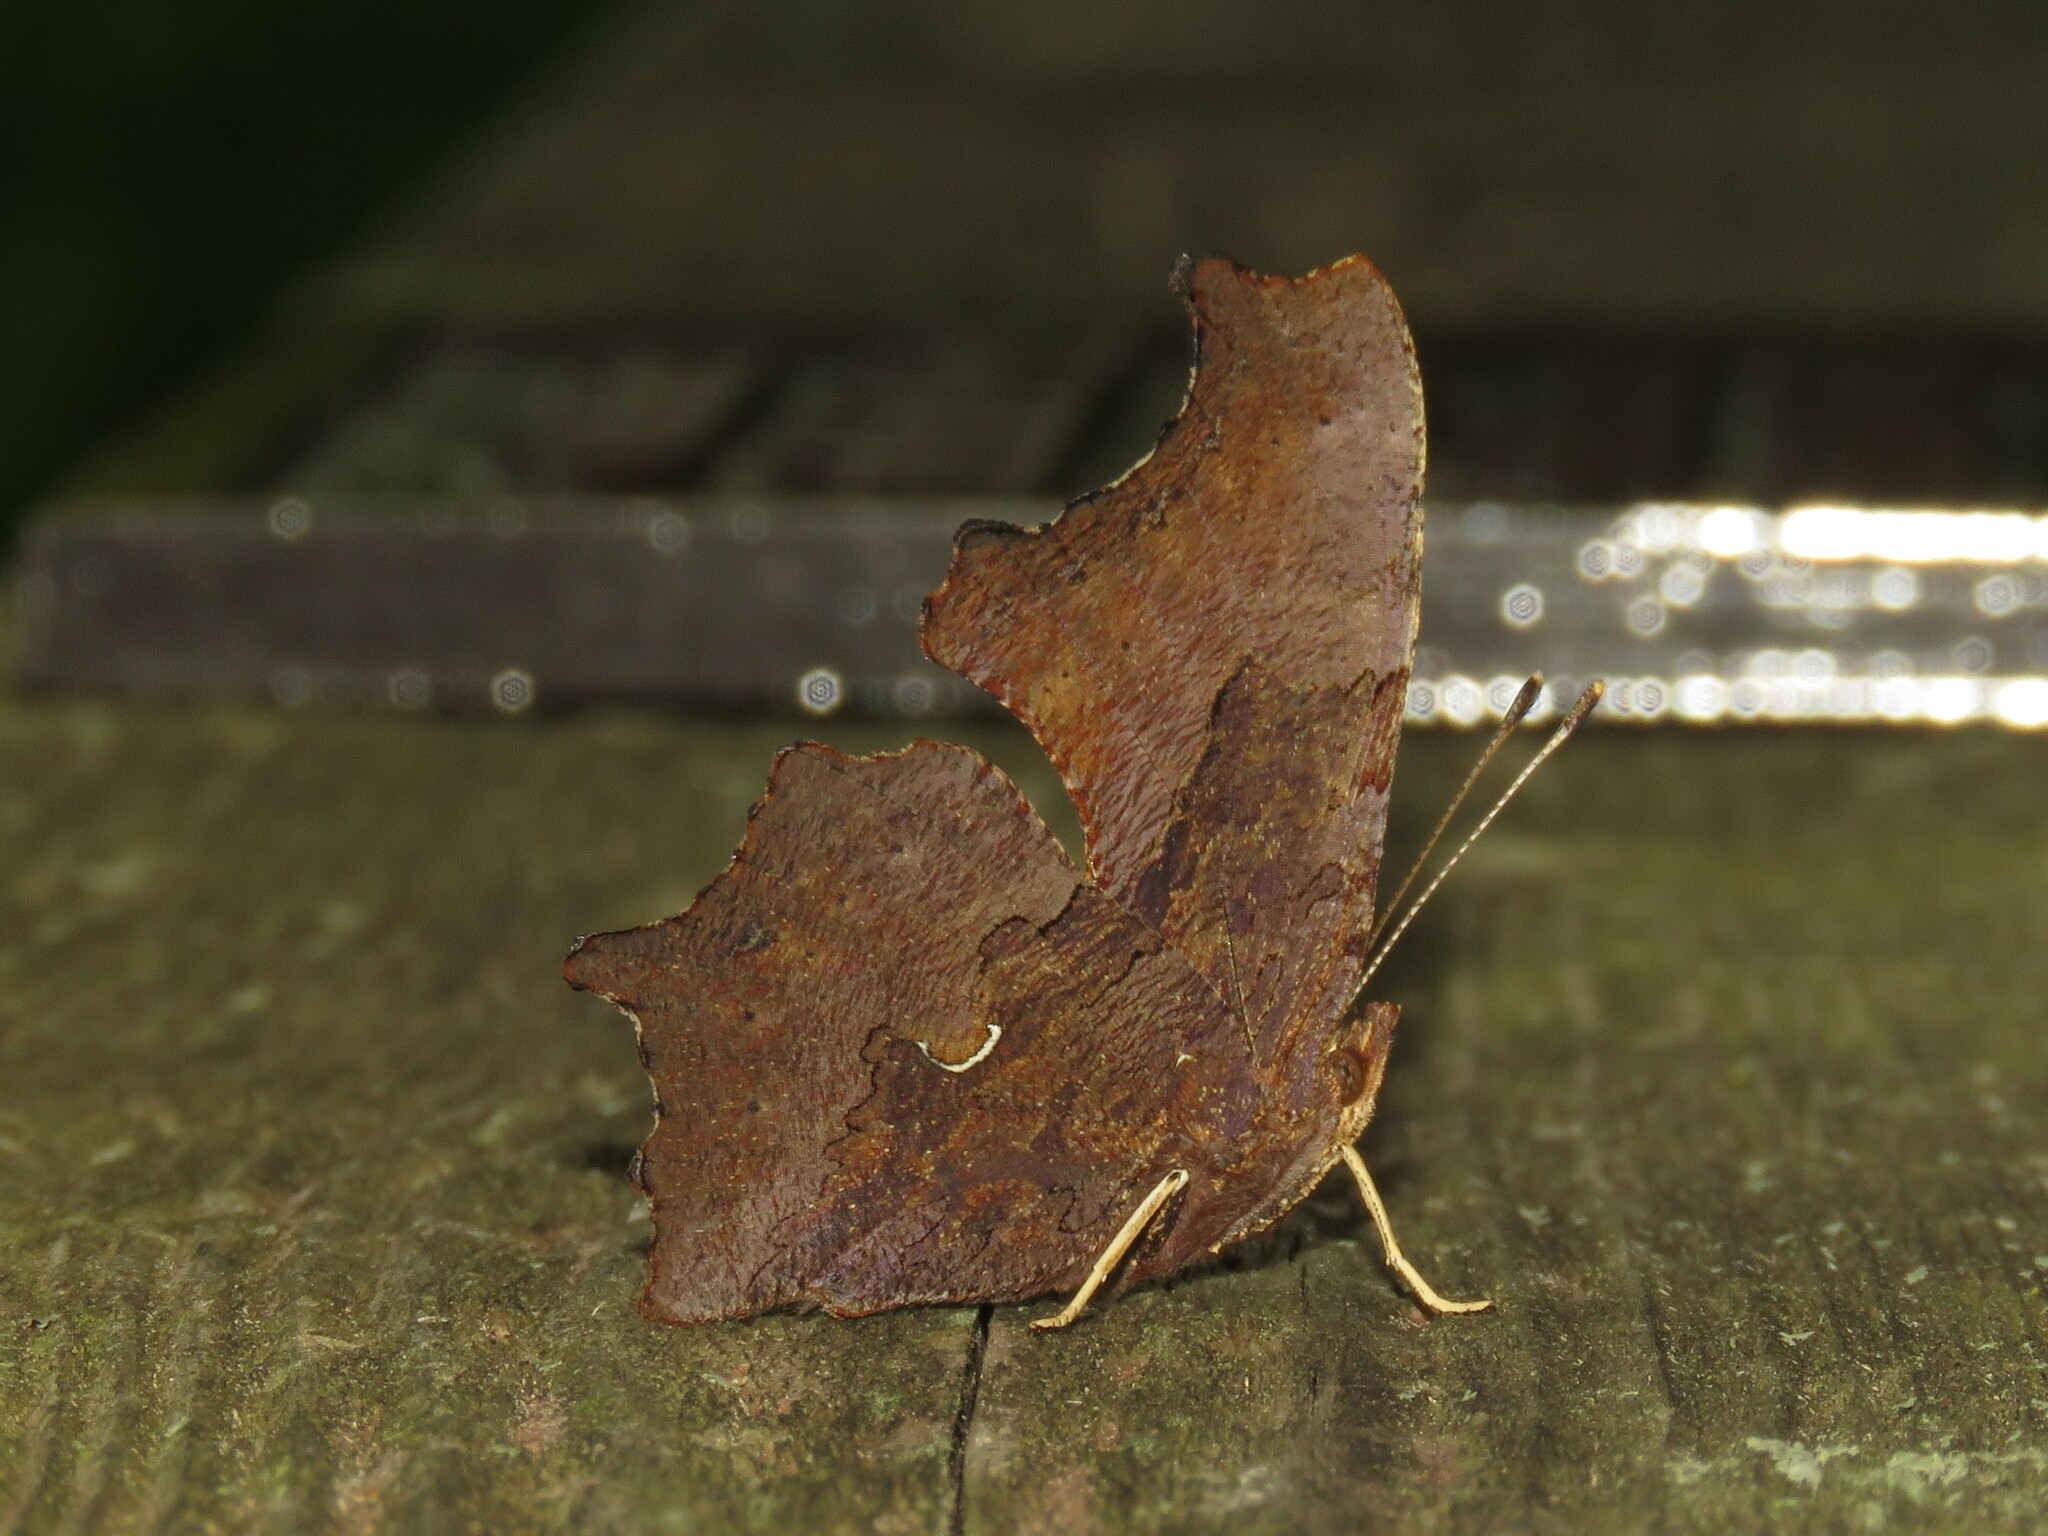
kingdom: Animalia
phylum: Arthropoda
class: Insecta
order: Lepidoptera
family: Nymphalidae
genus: Polygonia
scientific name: Polygonia comma
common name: Eastern comma
